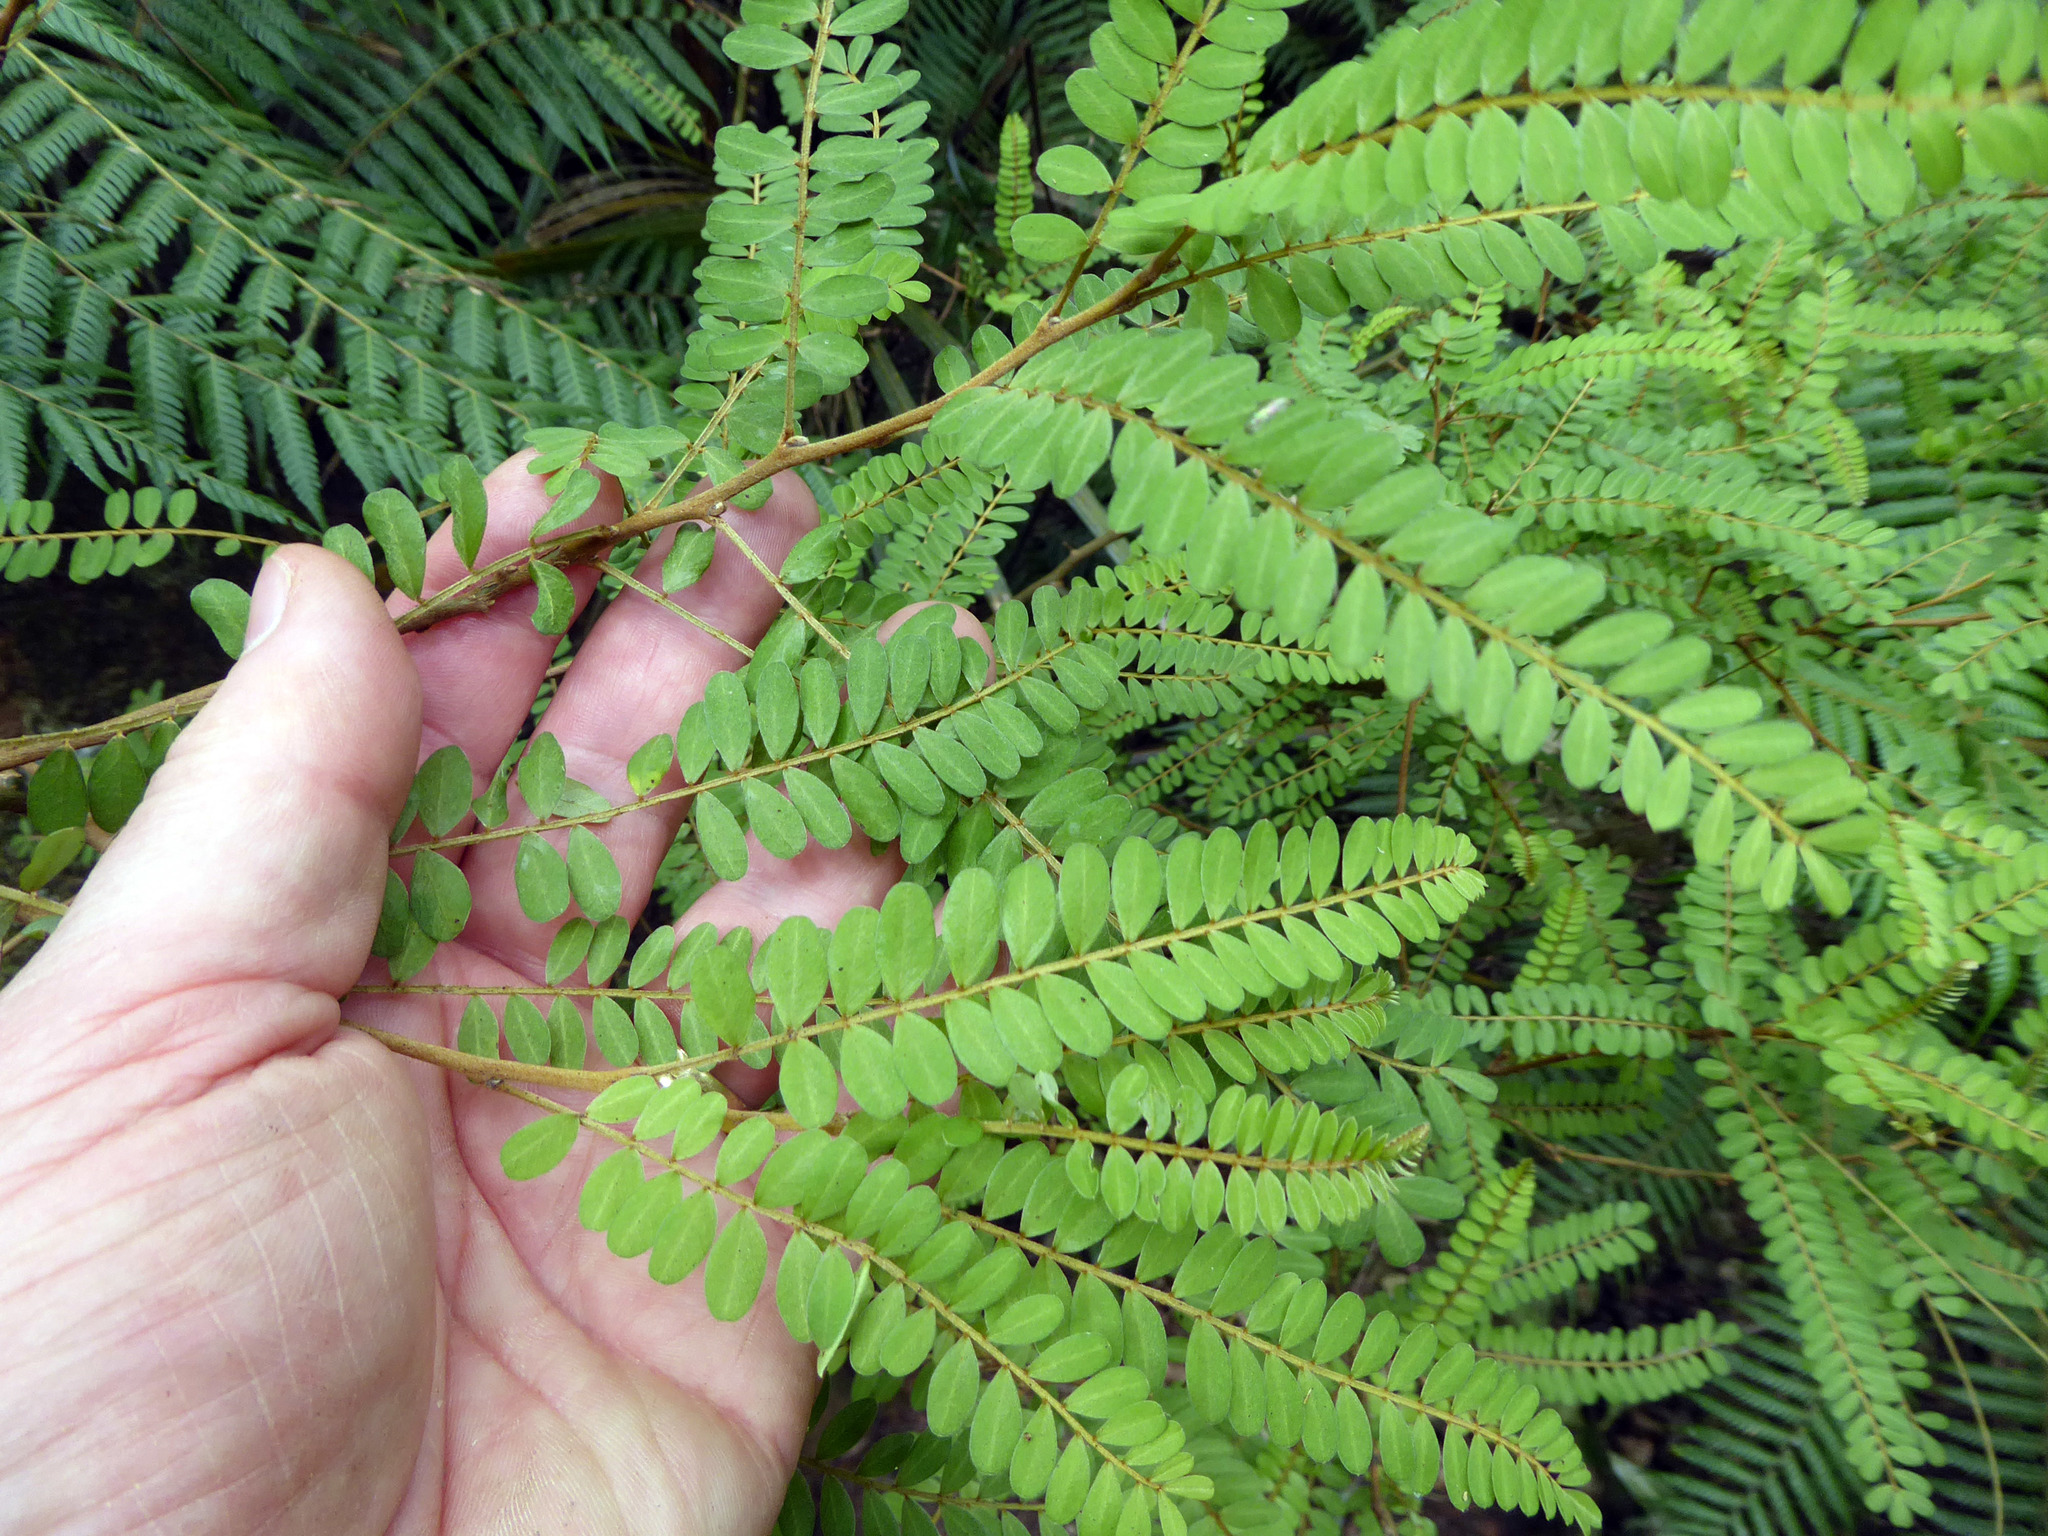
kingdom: Plantae
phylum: Tracheophyta
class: Magnoliopsida
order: Fabales
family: Fabaceae
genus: Sophora
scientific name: Sophora chathamica
